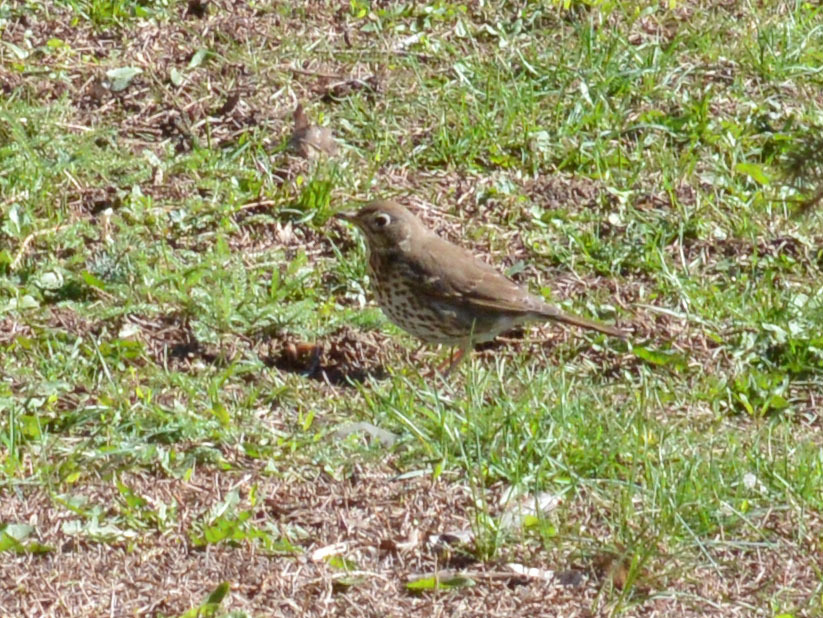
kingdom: Animalia
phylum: Chordata
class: Aves
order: Passeriformes
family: Turdidae
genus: Turdus
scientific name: Turdus philomelos
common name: Song thrush
